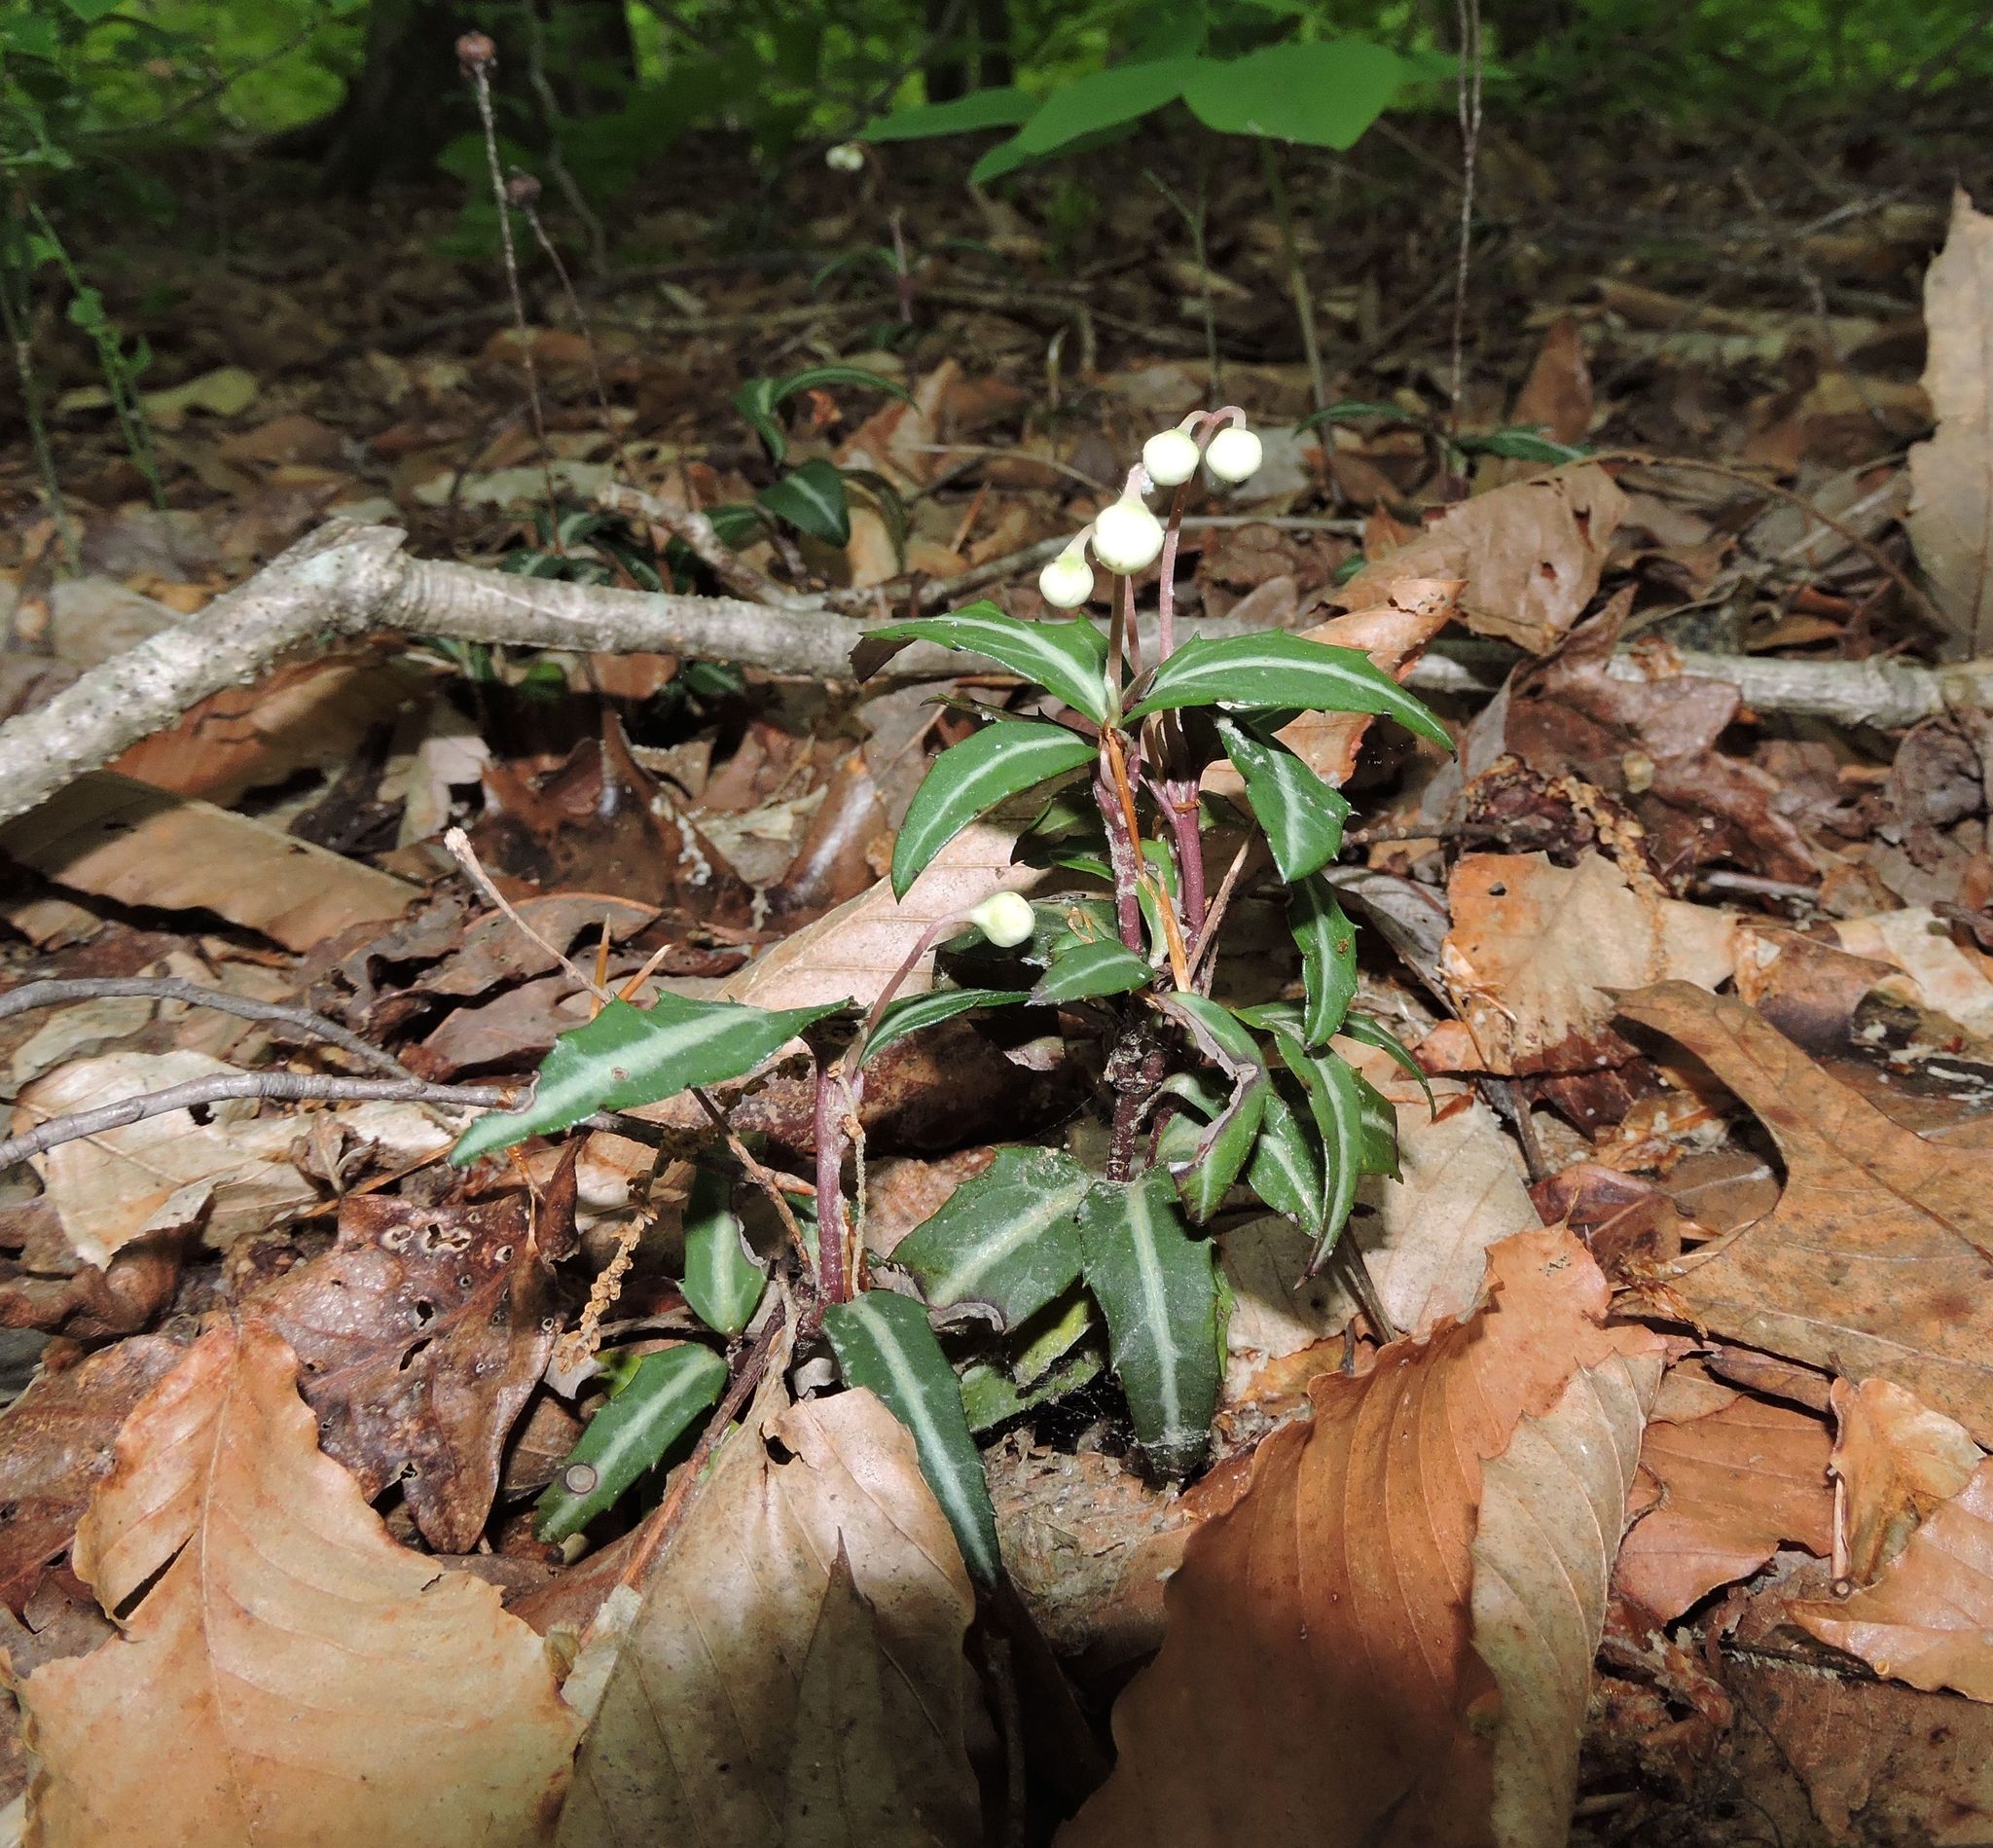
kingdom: Plantae
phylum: Tracheophyta
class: Magnoliopsida
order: Ericales
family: Ericaceae
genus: Chimaphila
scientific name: Chimaphila maculata
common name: Spotted pipsissewa
